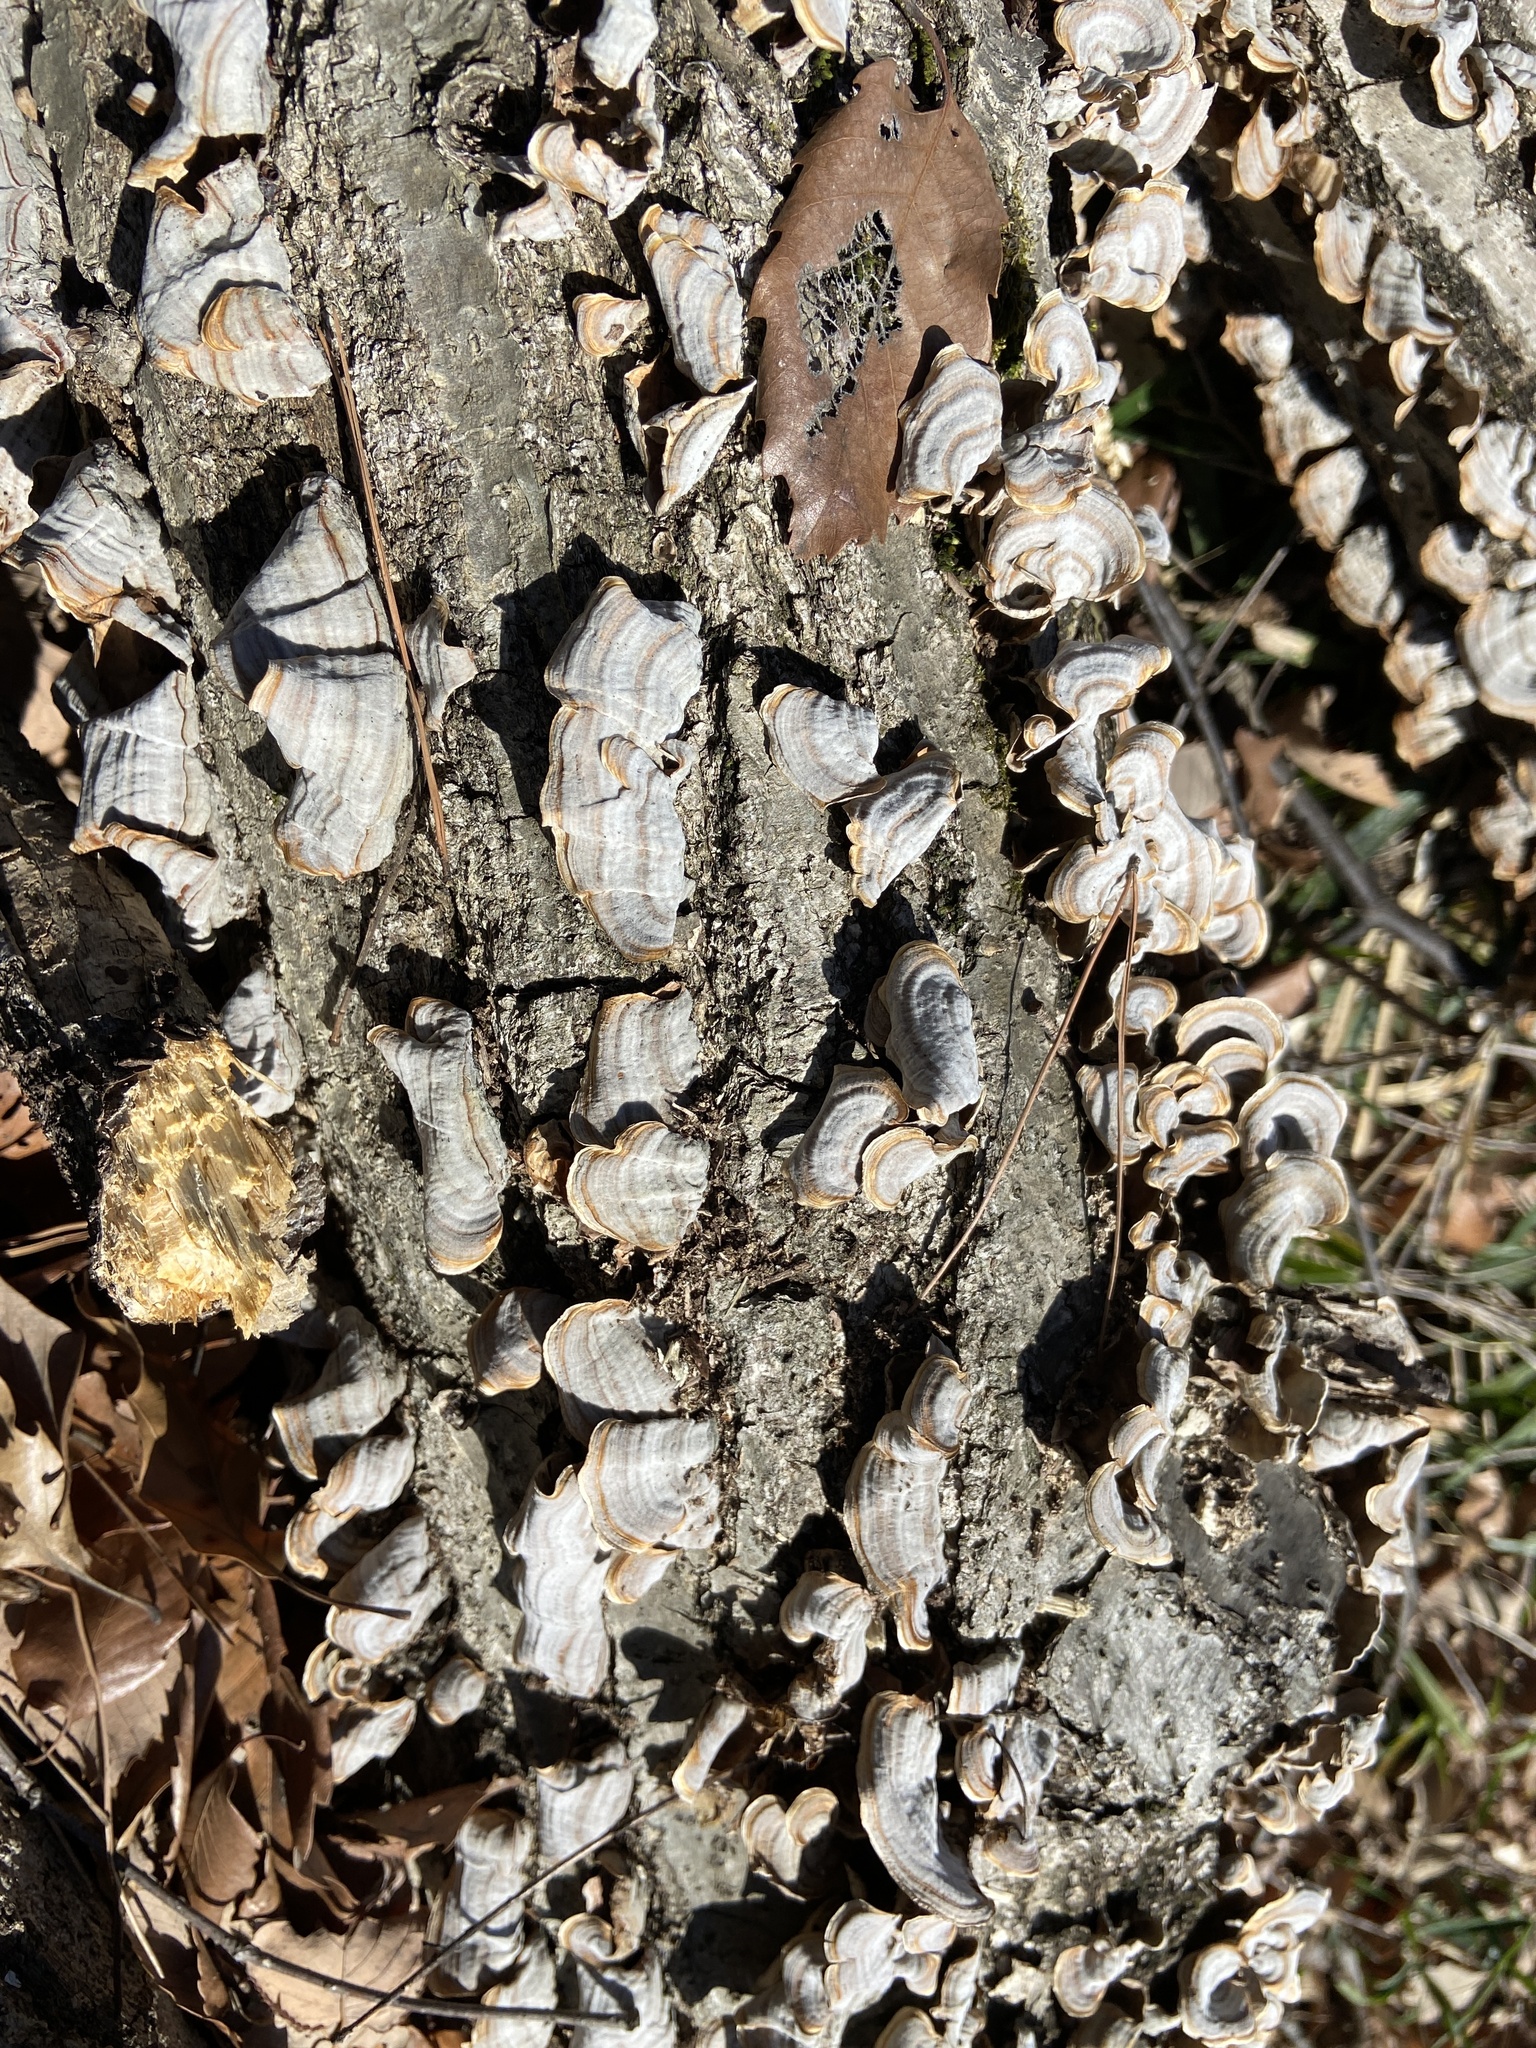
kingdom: Fungi
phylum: Basidiomycota
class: Agaricomycetes
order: Russulales
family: Stereaceae
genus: Stereum
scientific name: Stereum ostrea
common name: False turkeytail
